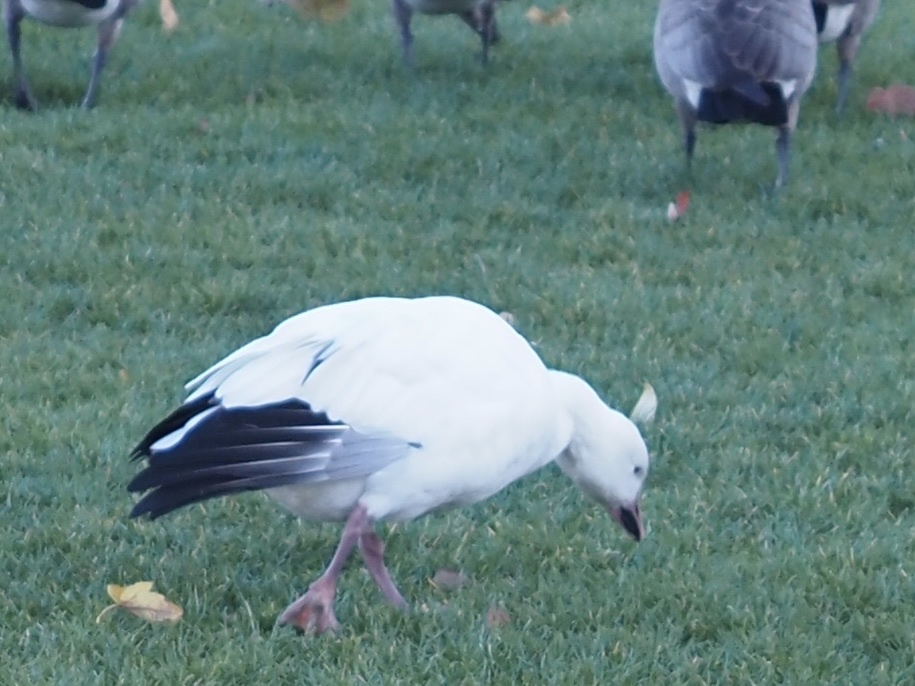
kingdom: Animalia
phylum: Chordata
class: Aves
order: Anseriformes
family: Anatidae
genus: Anser
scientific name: Anser caerulescens
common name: Snow goose
